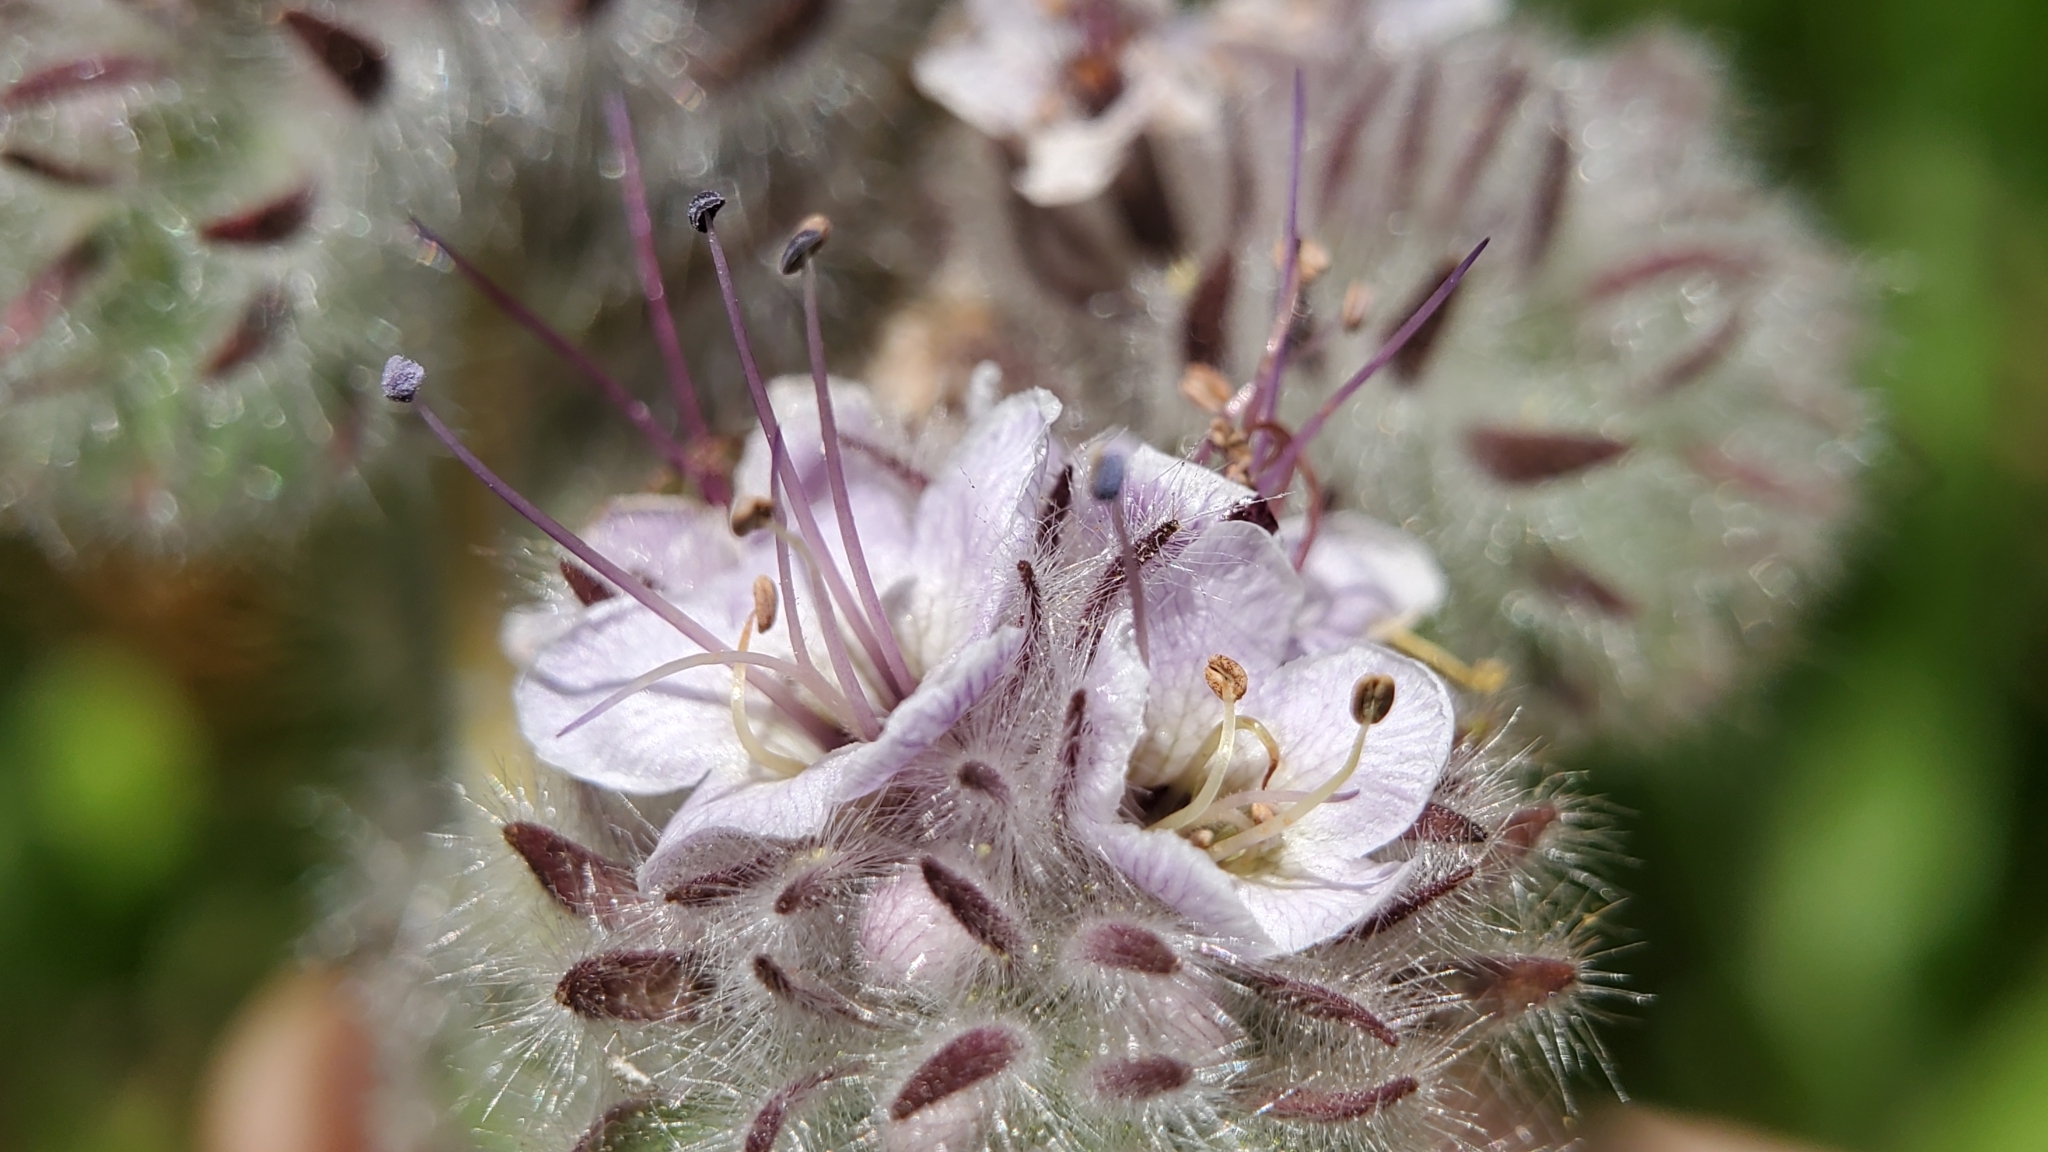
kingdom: Plantae
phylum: Tracheophyta
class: Magnoliopsida
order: Boraginales
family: Hydrophyllaceae
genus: Phacelia
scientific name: Phacelia hubbyi
